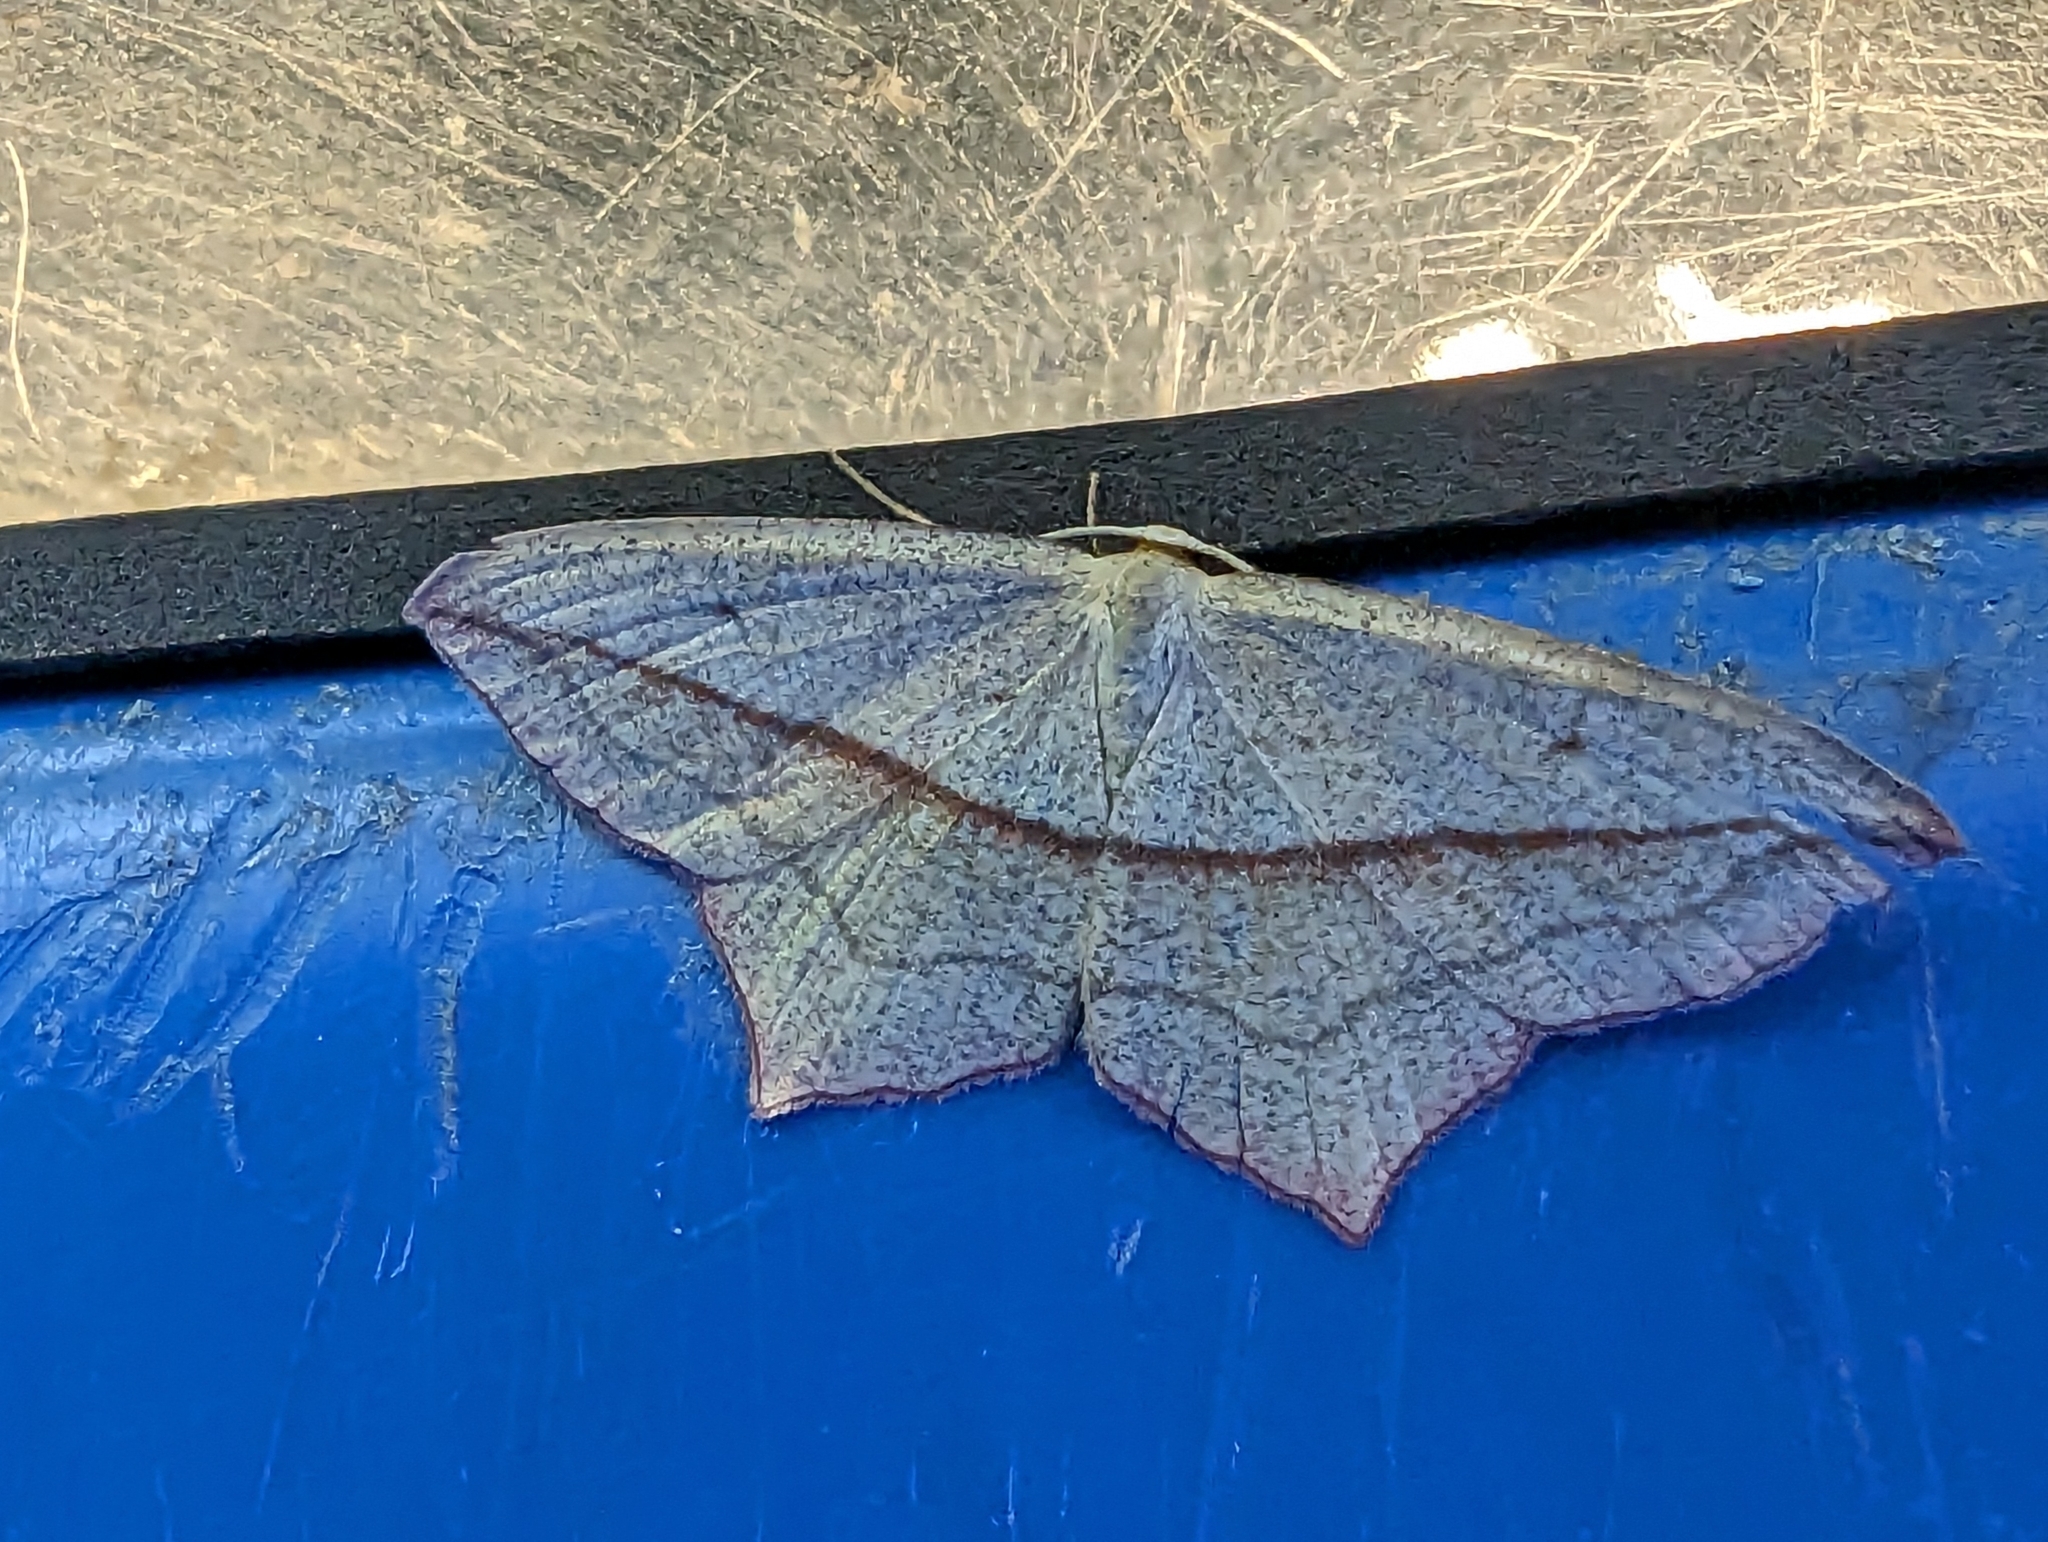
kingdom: Animalia
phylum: Arthropoda
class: Insecta
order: Lepidoptera
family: Geometridae
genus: Timandra
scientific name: Timandra comae
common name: Blood-vein
